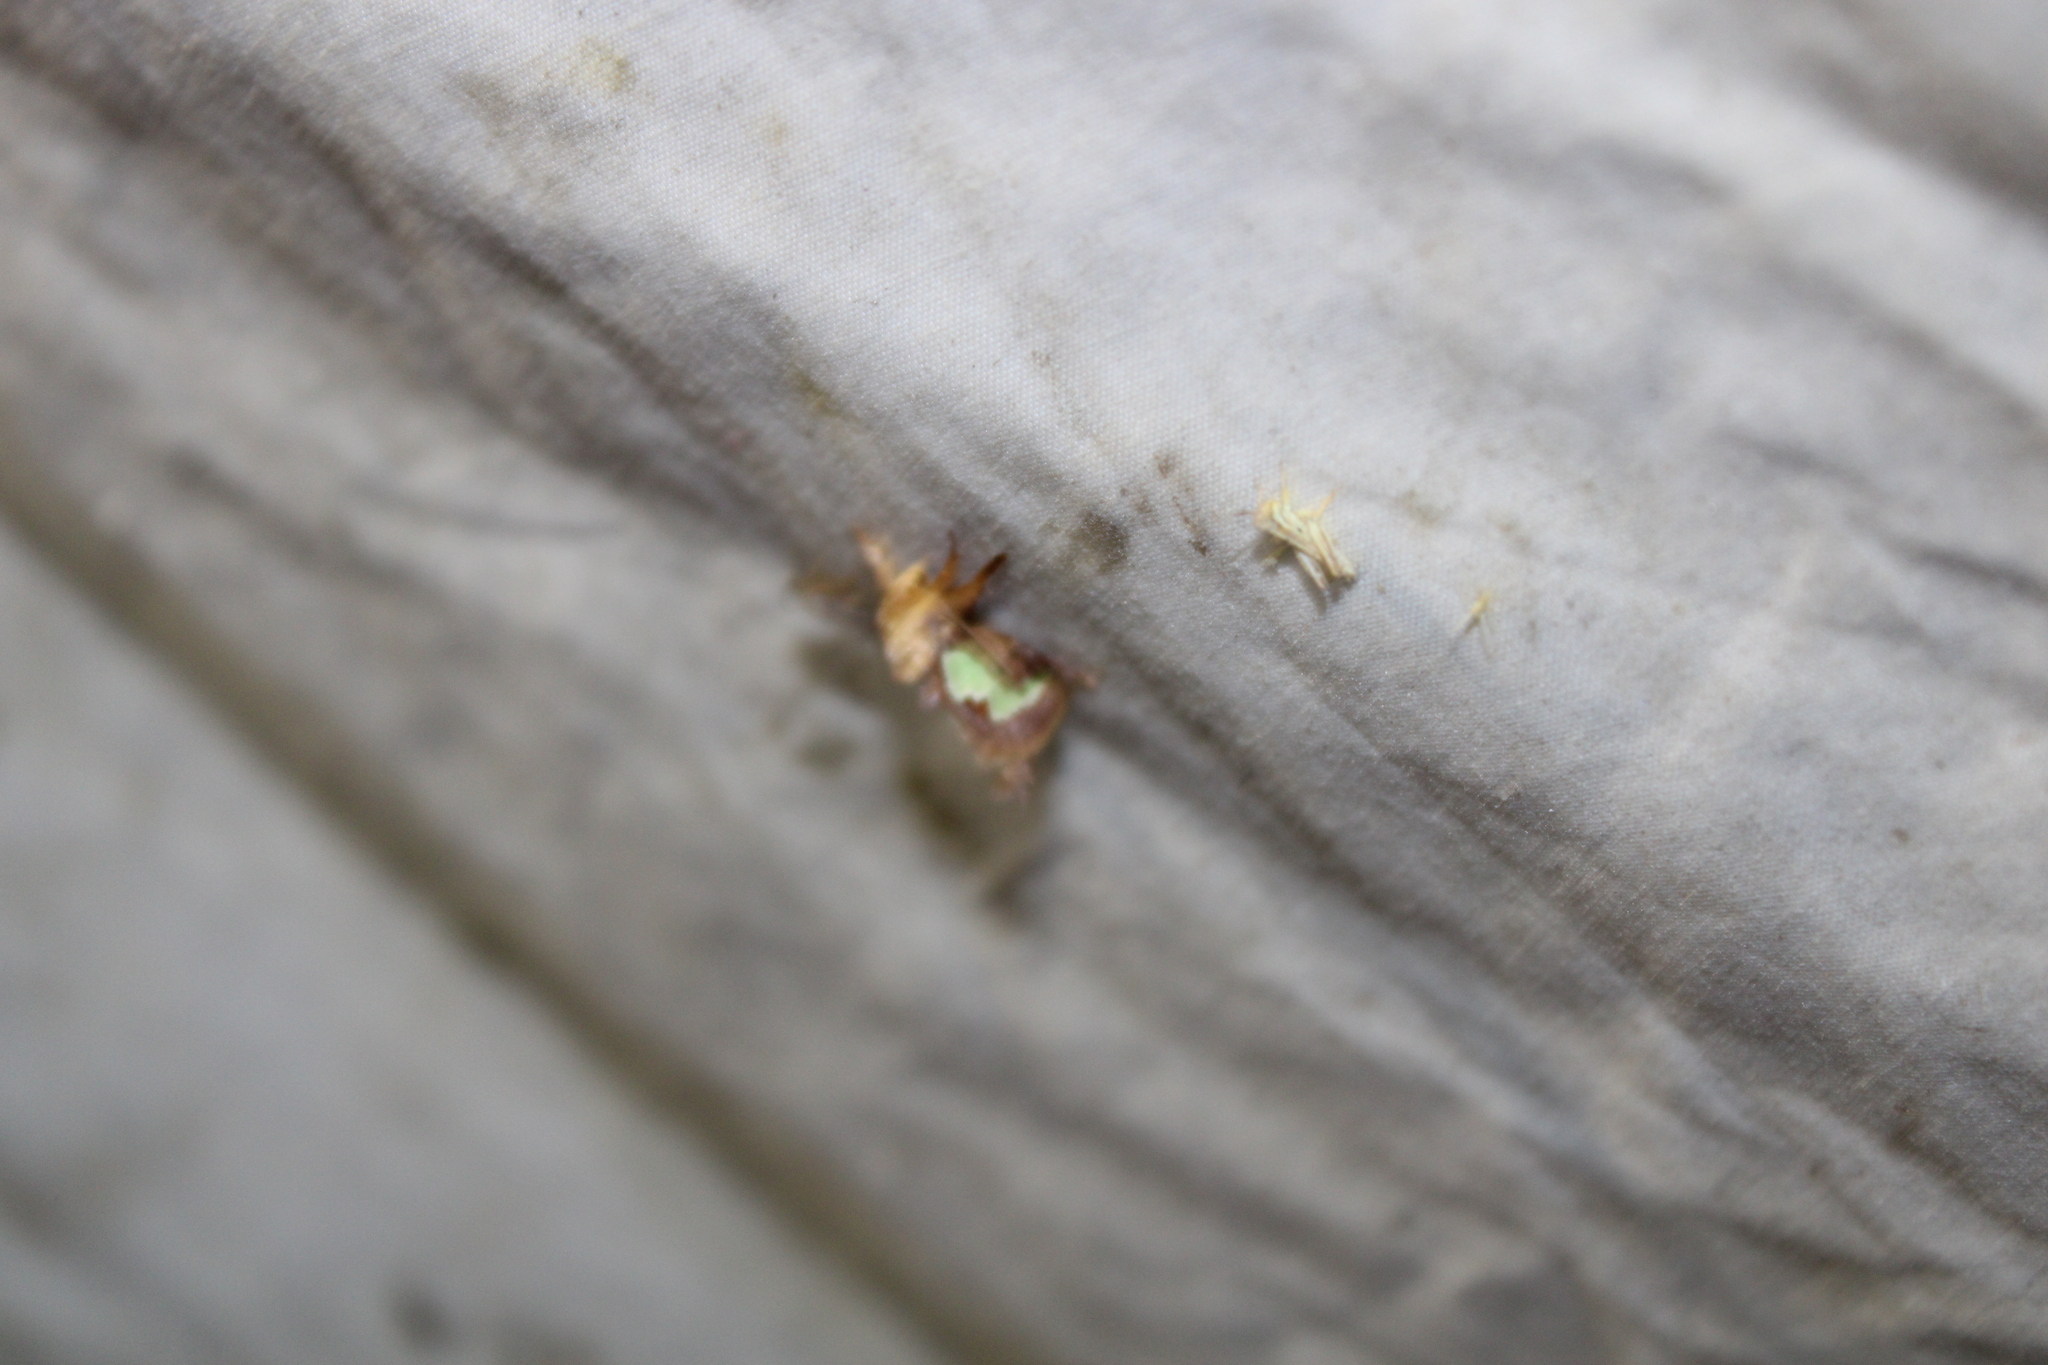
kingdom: Animalia
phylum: Arthropoda
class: Insecta
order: Lepidoptera
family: Limacodidae
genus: Euclea
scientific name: Euclea delphinii
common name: Spiny oak-slug moth
